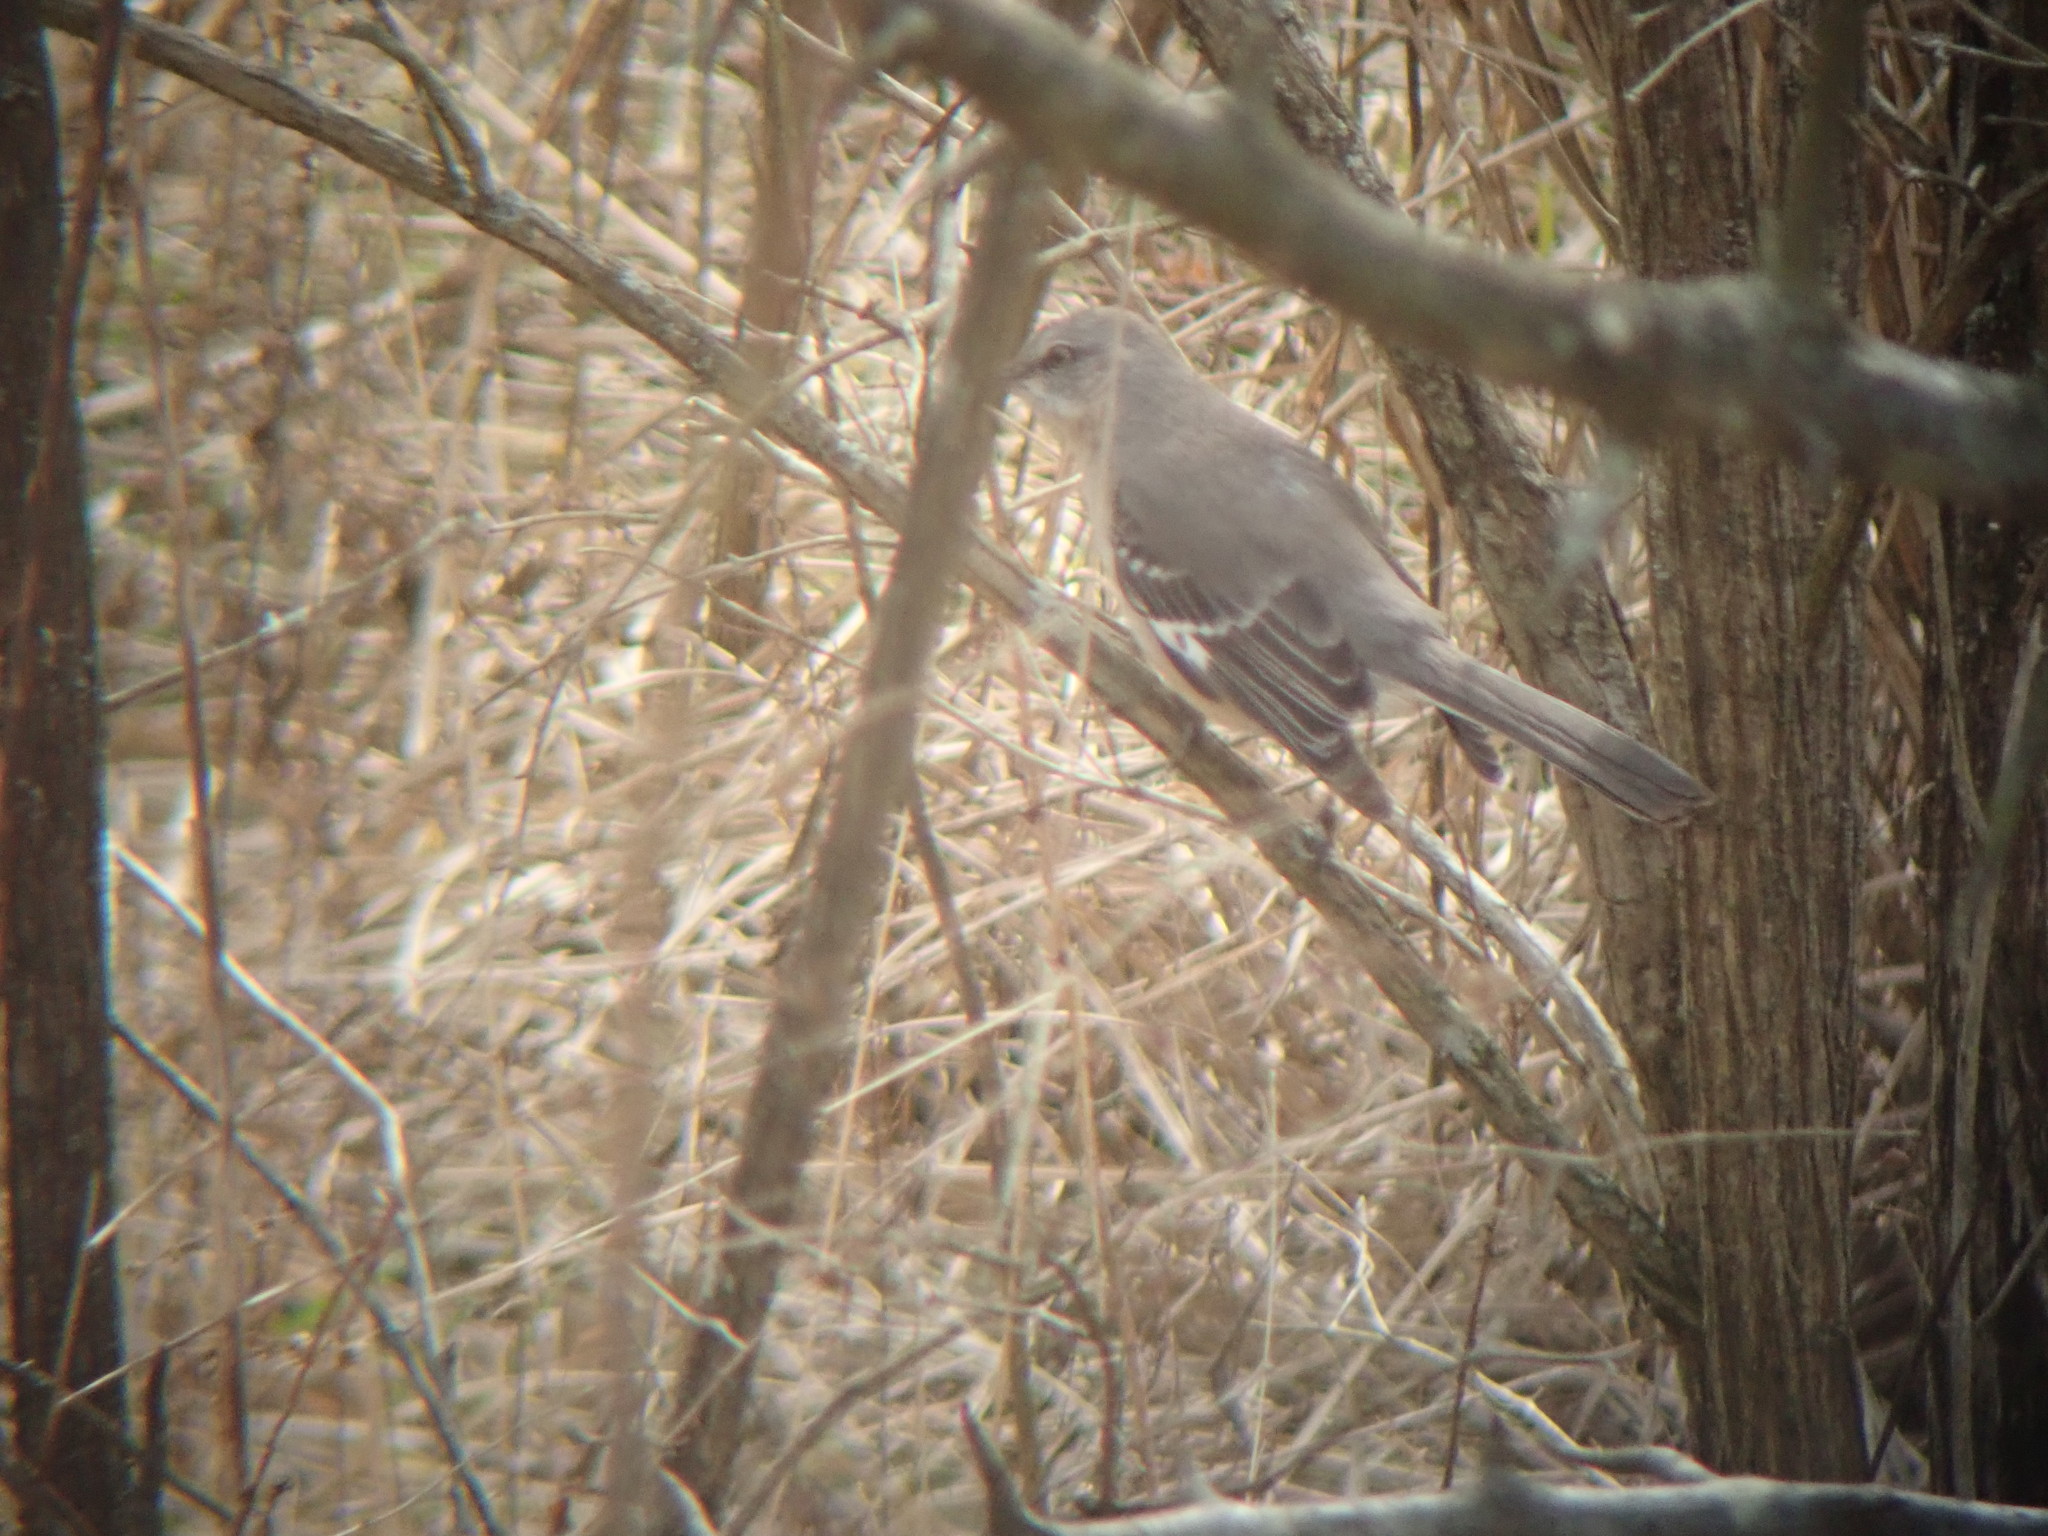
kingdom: Animalia
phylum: Chordata
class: Aves
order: Passeriformes
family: Mimidae
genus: Mimus
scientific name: Mimus polyglottos
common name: Northern mockingbird
